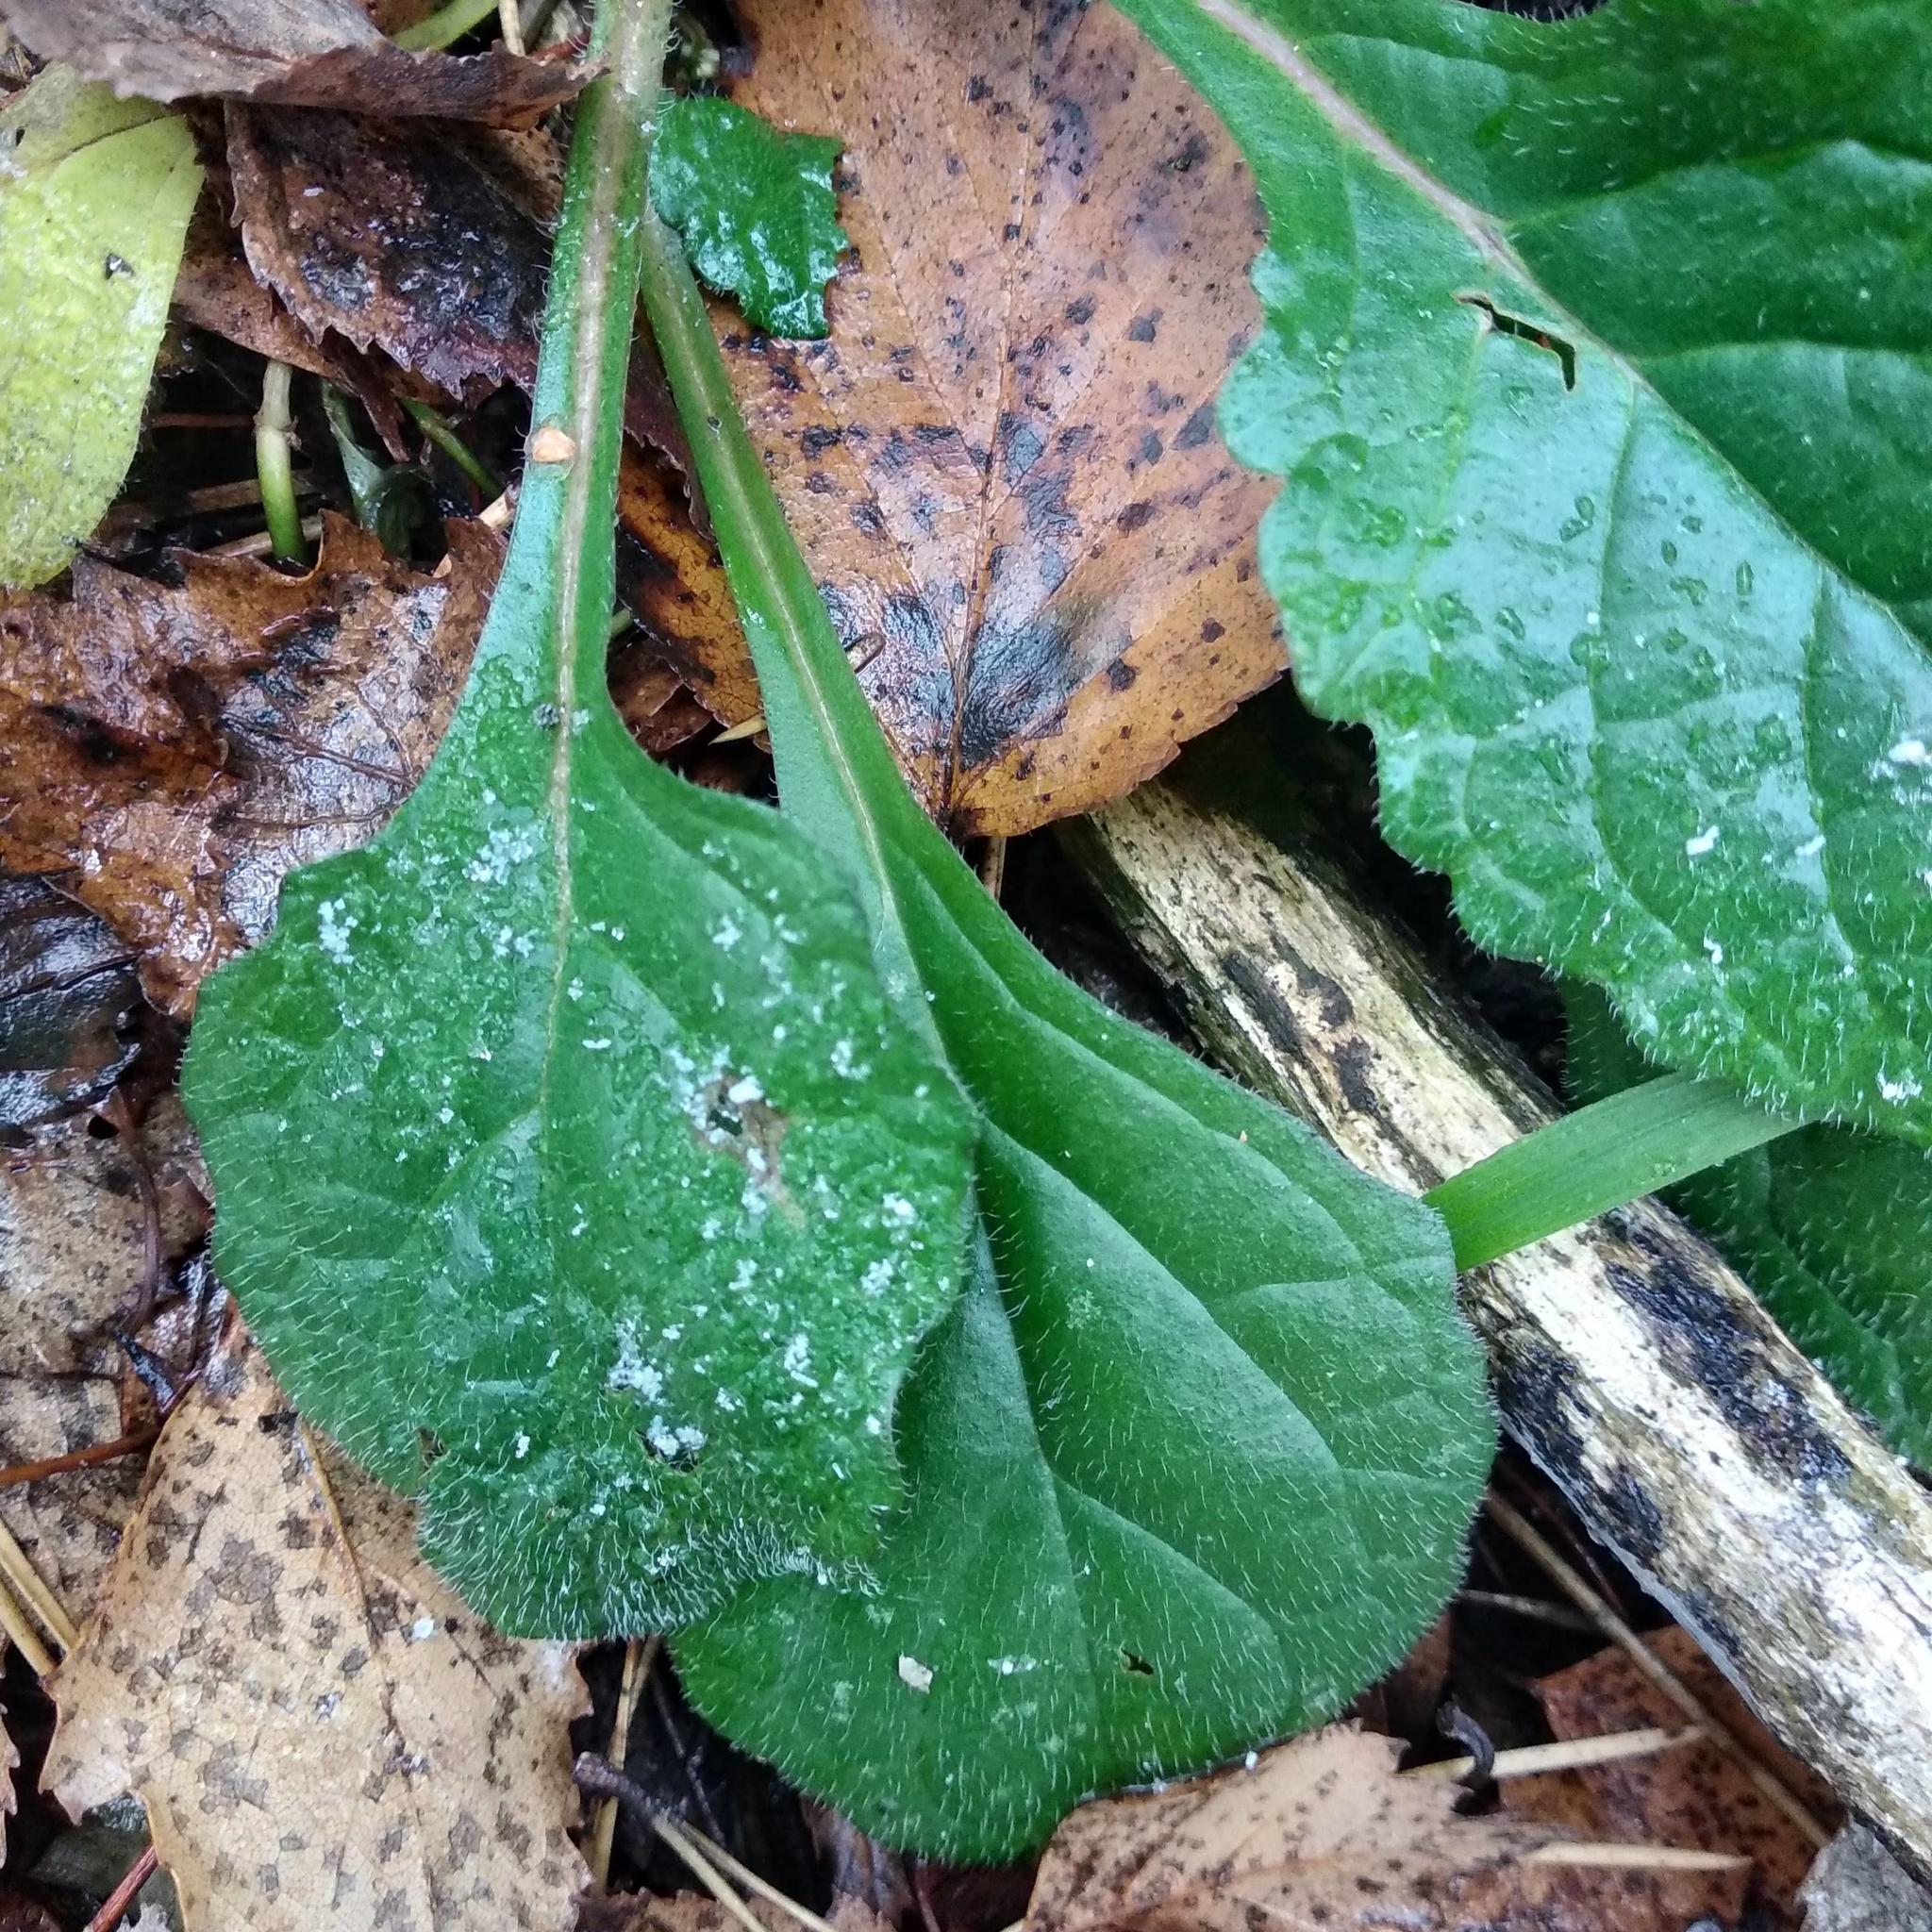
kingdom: Plantae
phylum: Tracheophyta
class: Magnoliopsida
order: Lamiales
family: Lamiaceae
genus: Ajuga
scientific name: Ajuga reptans
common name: Bugle
